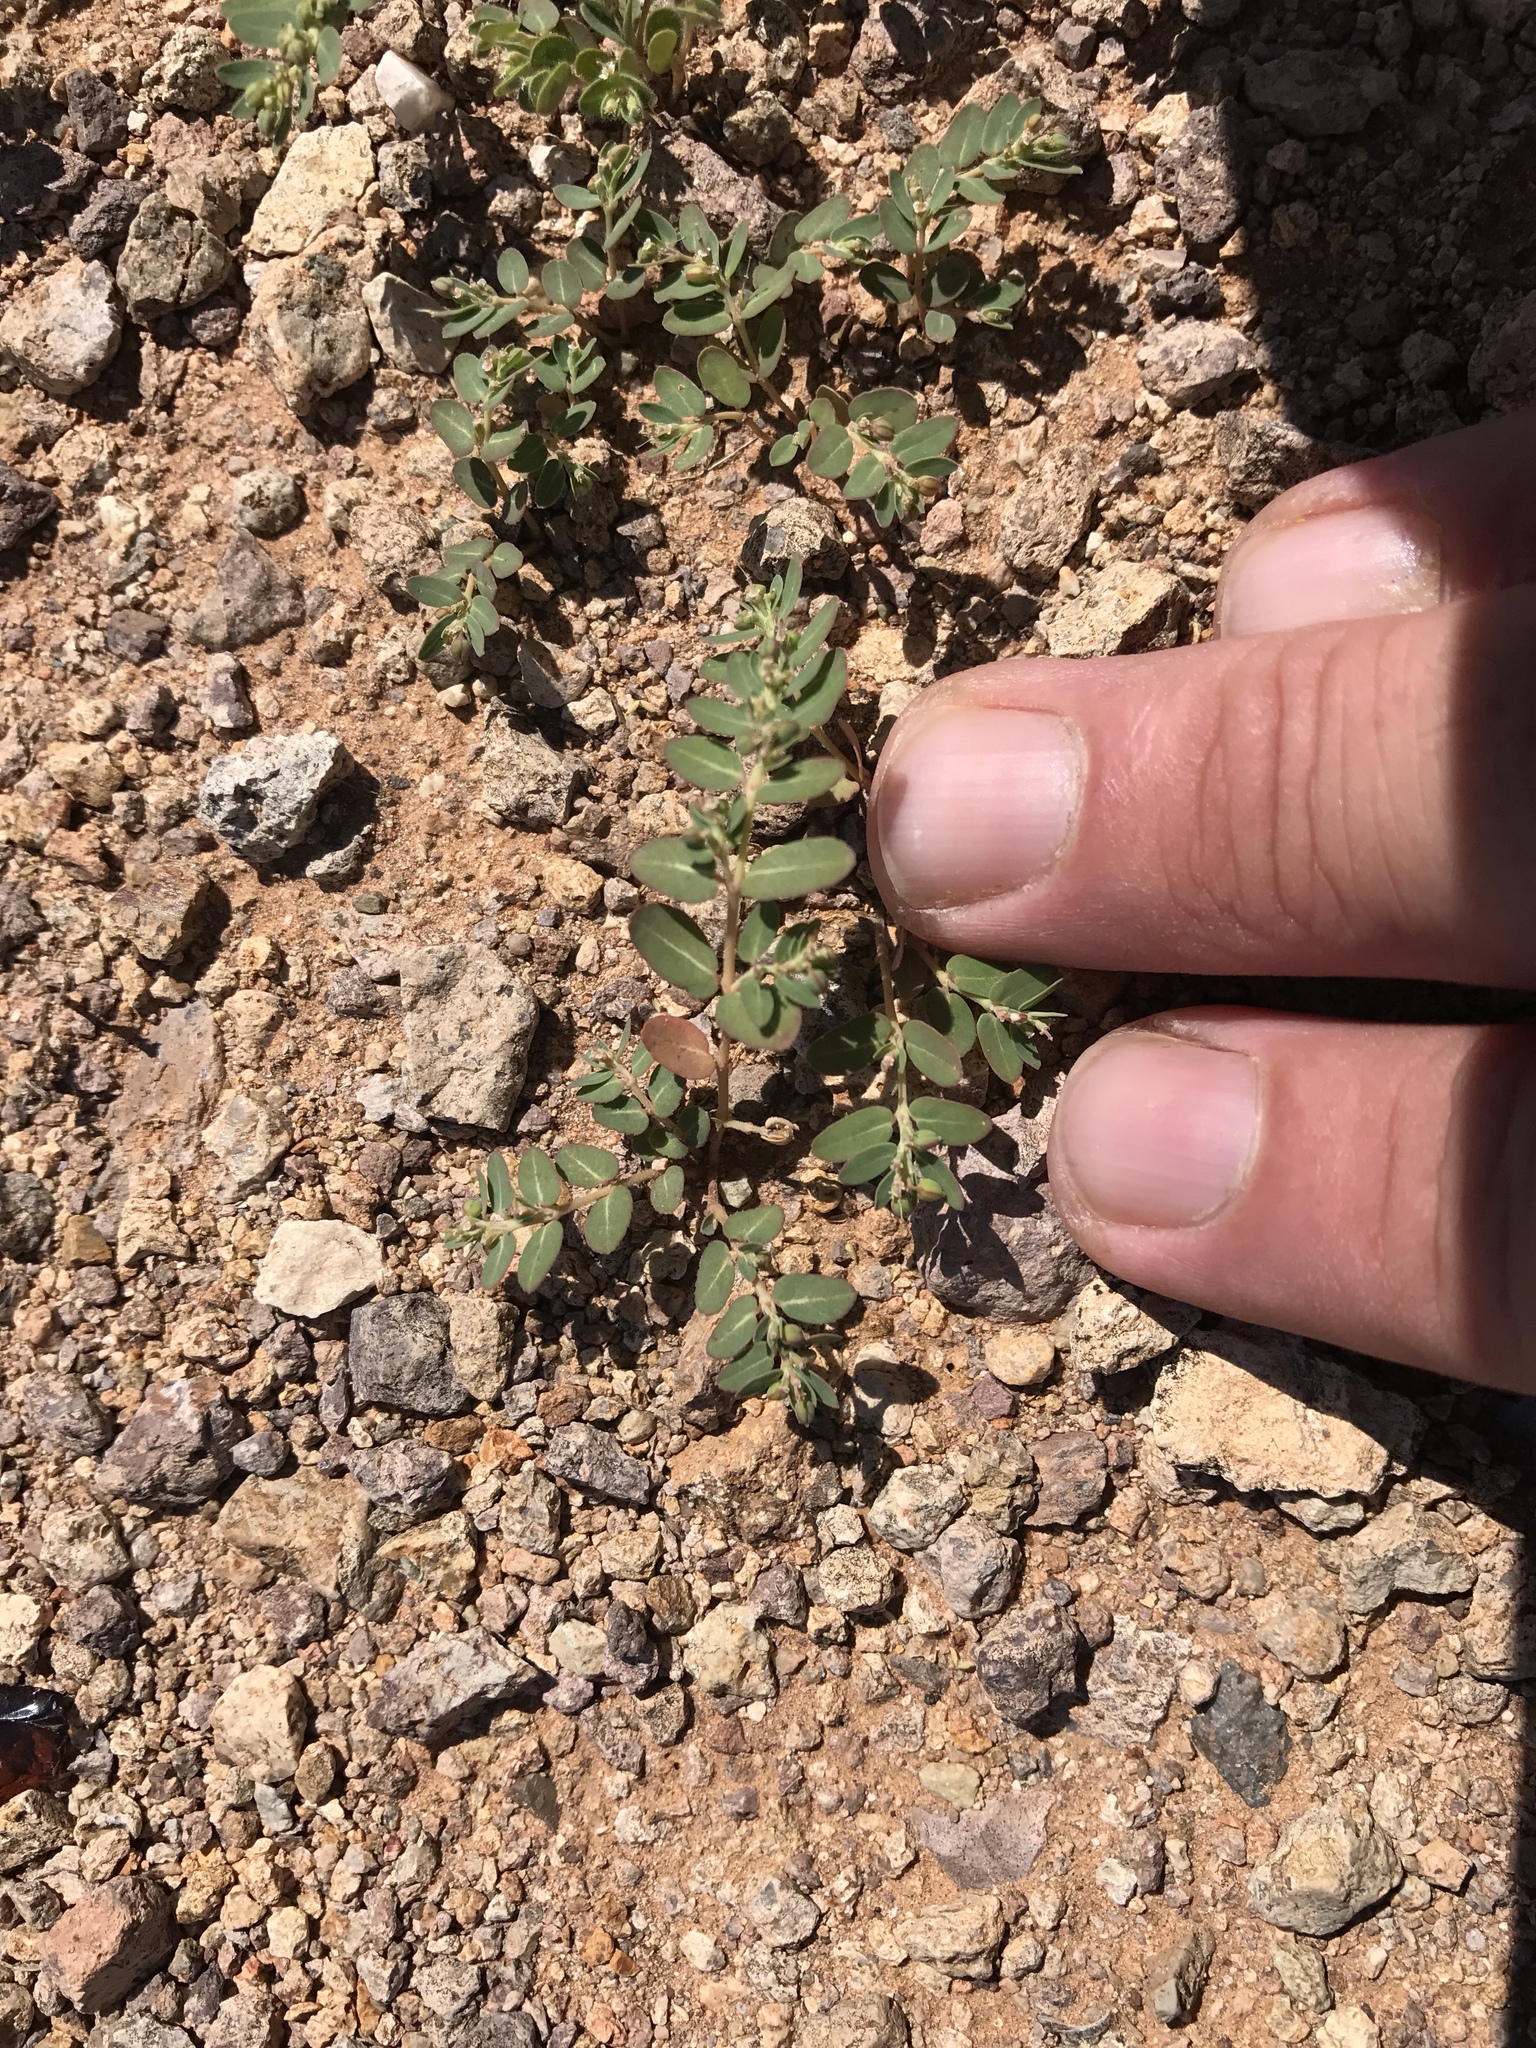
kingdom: Plantae
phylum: Tracheophyta
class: Magnoliopsida
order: Malpighiales
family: Euphorbiaceae
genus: Euphorbia
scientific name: Euphorbia abramsiana
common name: Abram's spurge
